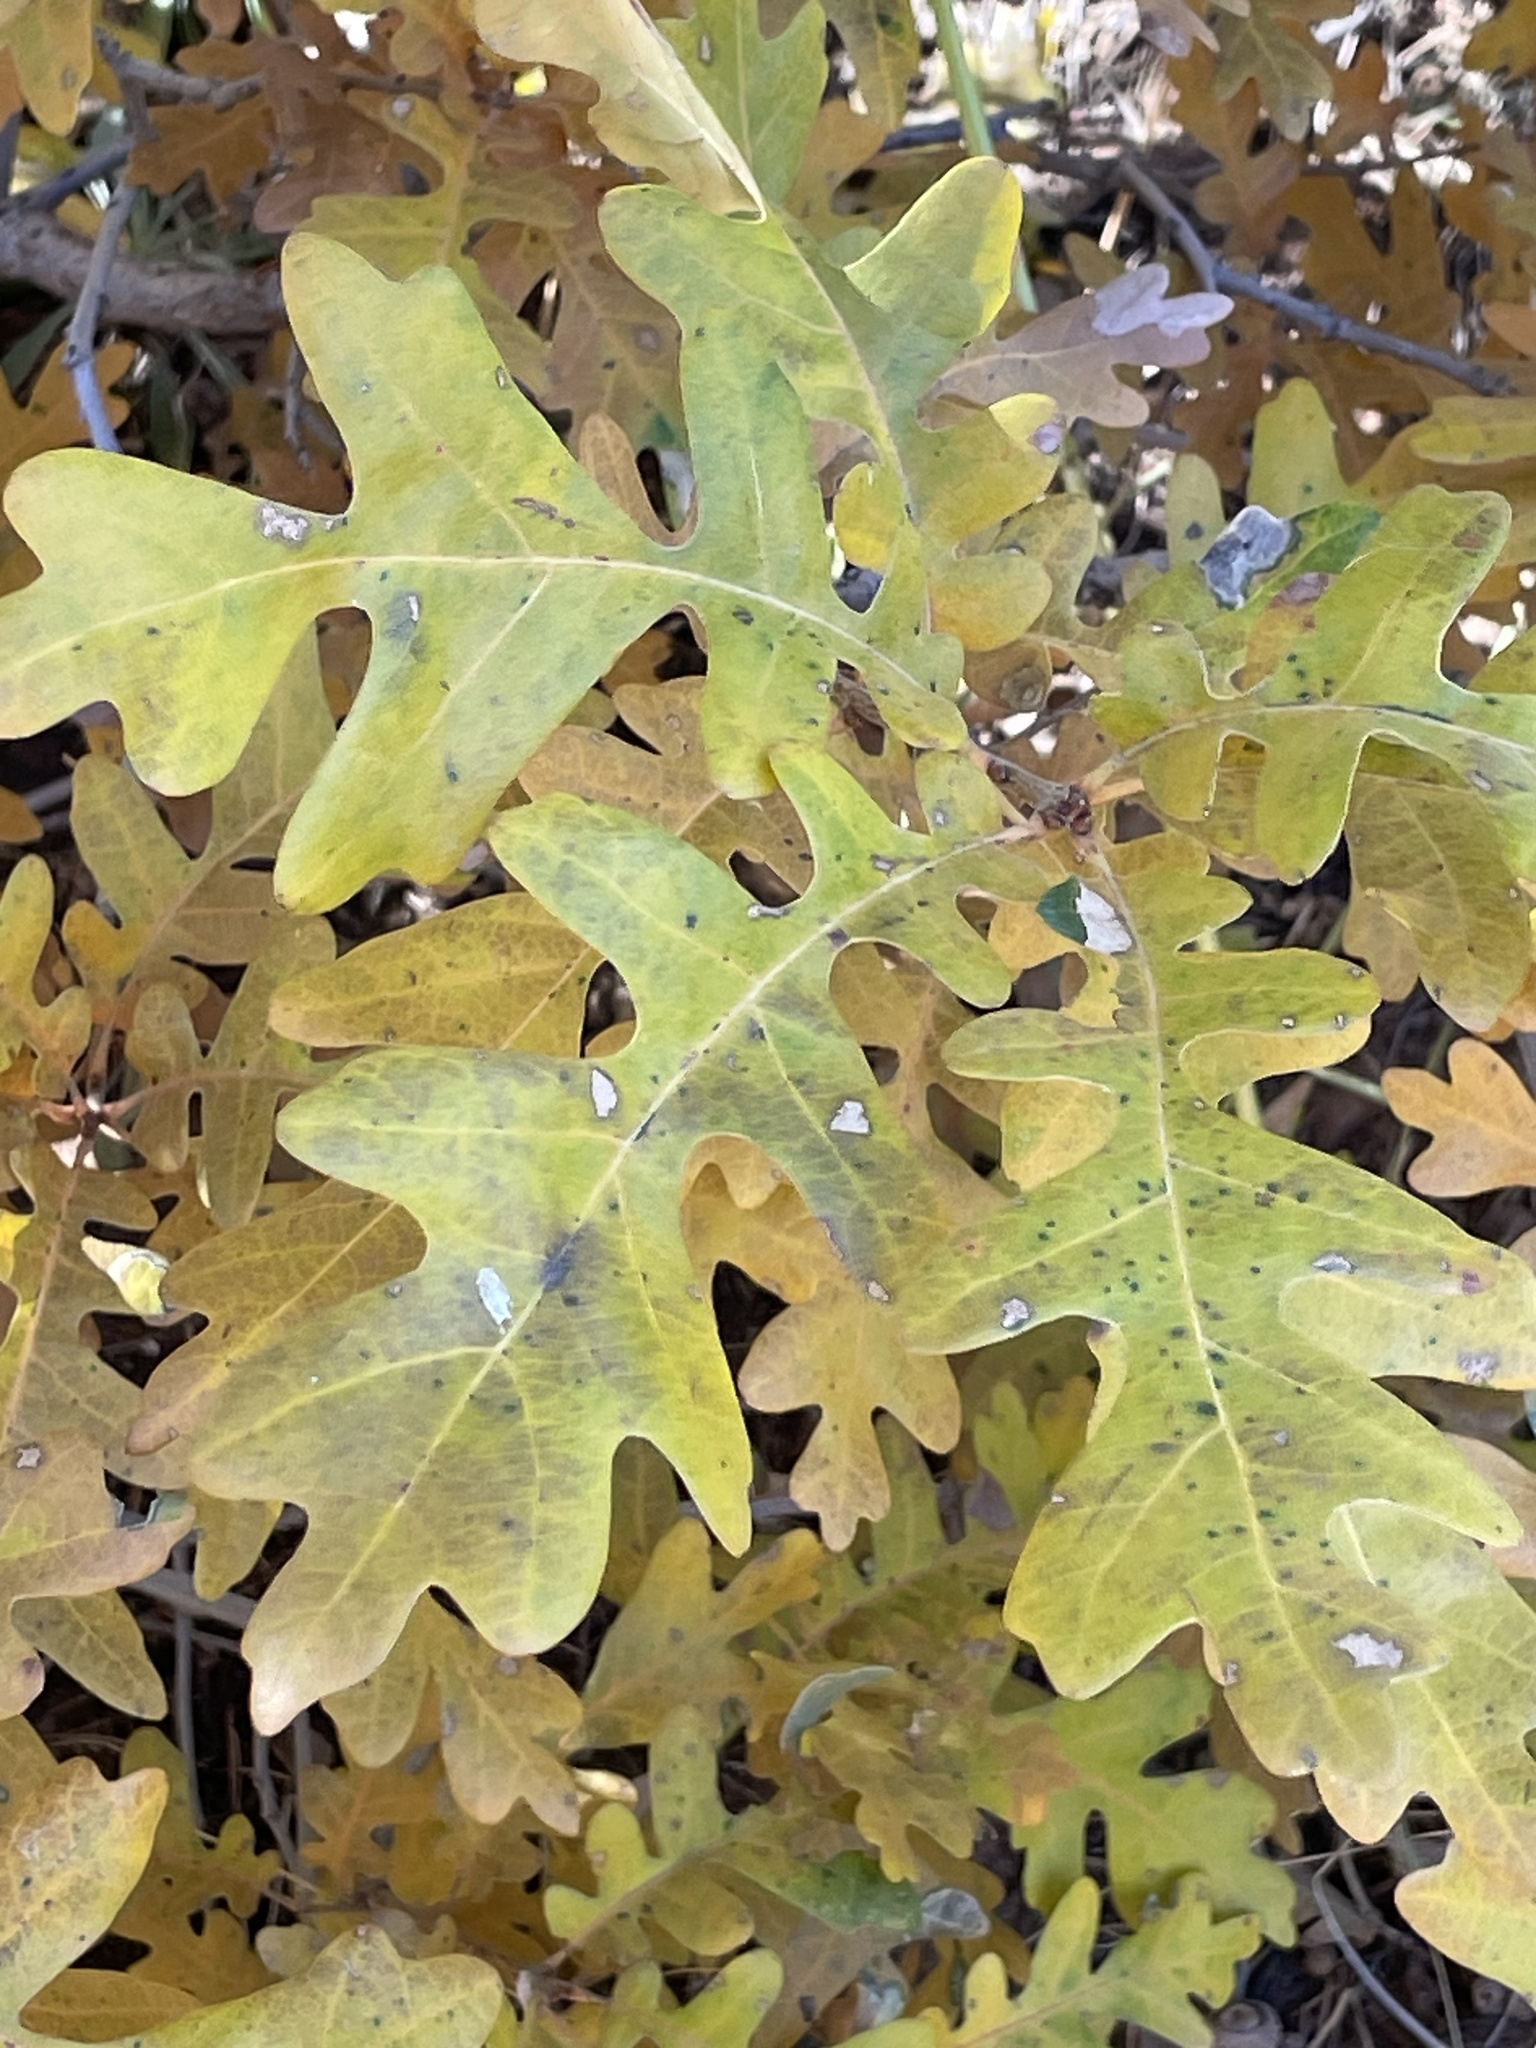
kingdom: Plantae
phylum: Tracheophyta
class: Magnoliopsida
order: Fagales
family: Fagaceae
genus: Quercus
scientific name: Quercus gambelii
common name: Gambel oak
